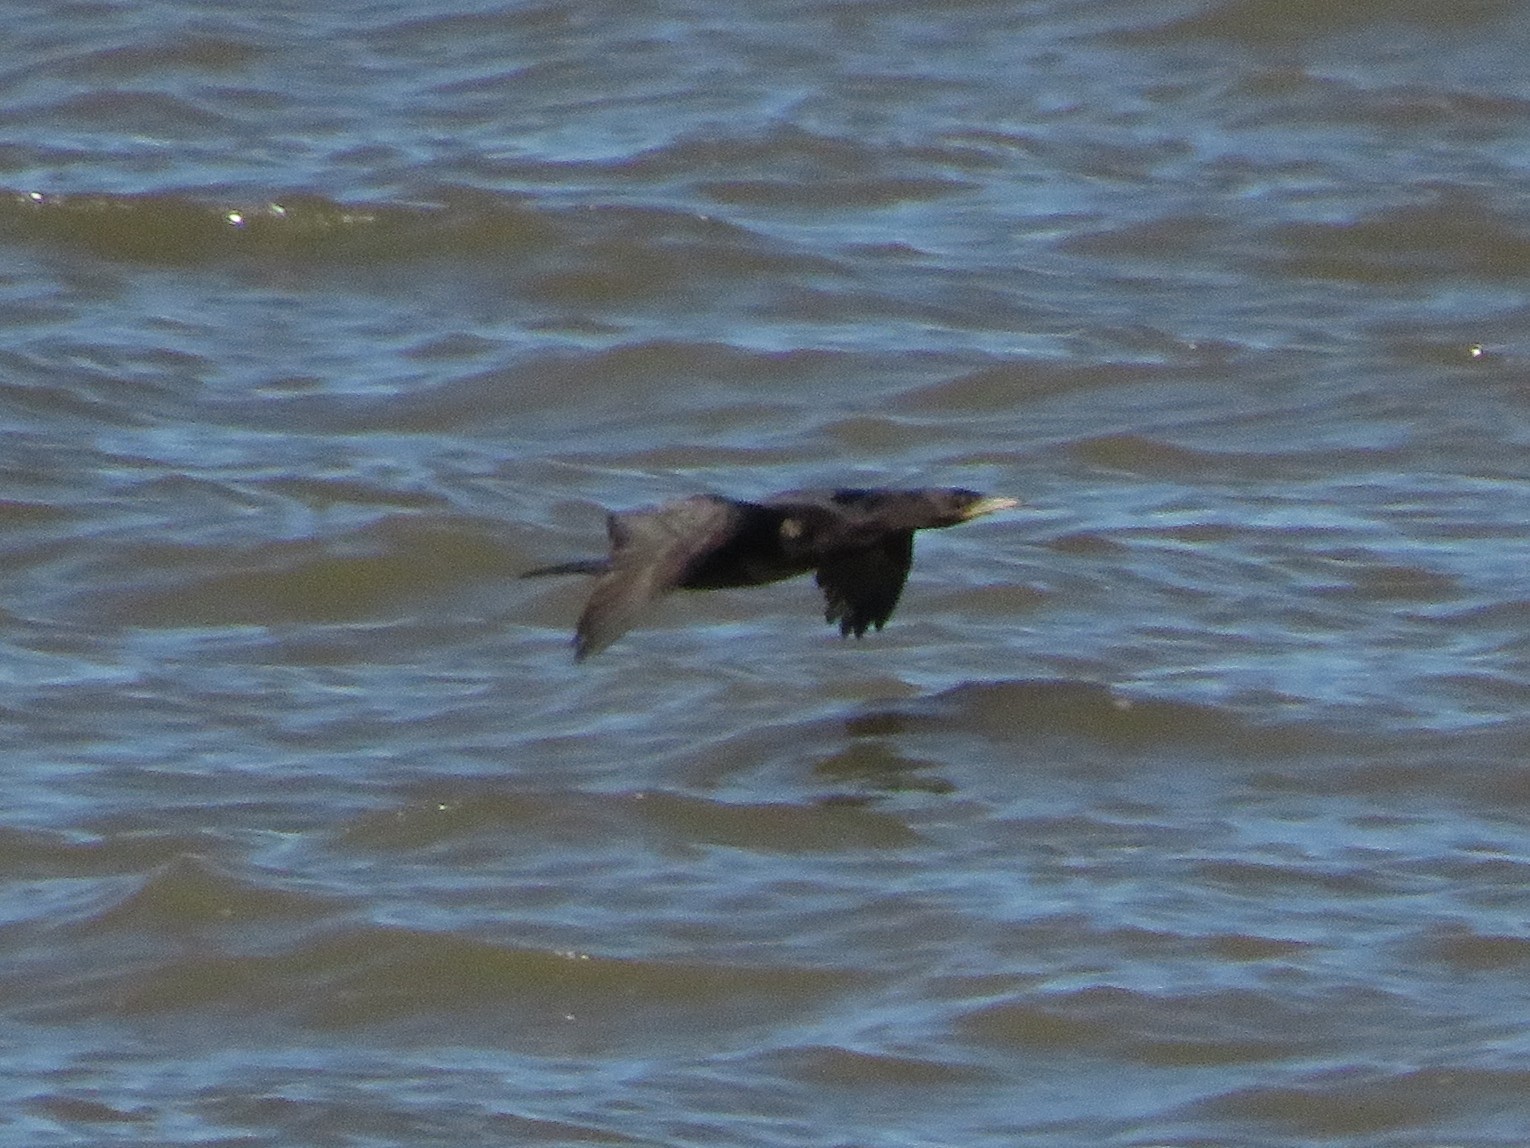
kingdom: Animalia
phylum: Chordata
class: Aves
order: Suliformes
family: Phalacrocoracidae
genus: Phalacrocorax
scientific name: Phalacrocorax brasilianus
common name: Neotropic cormorant
